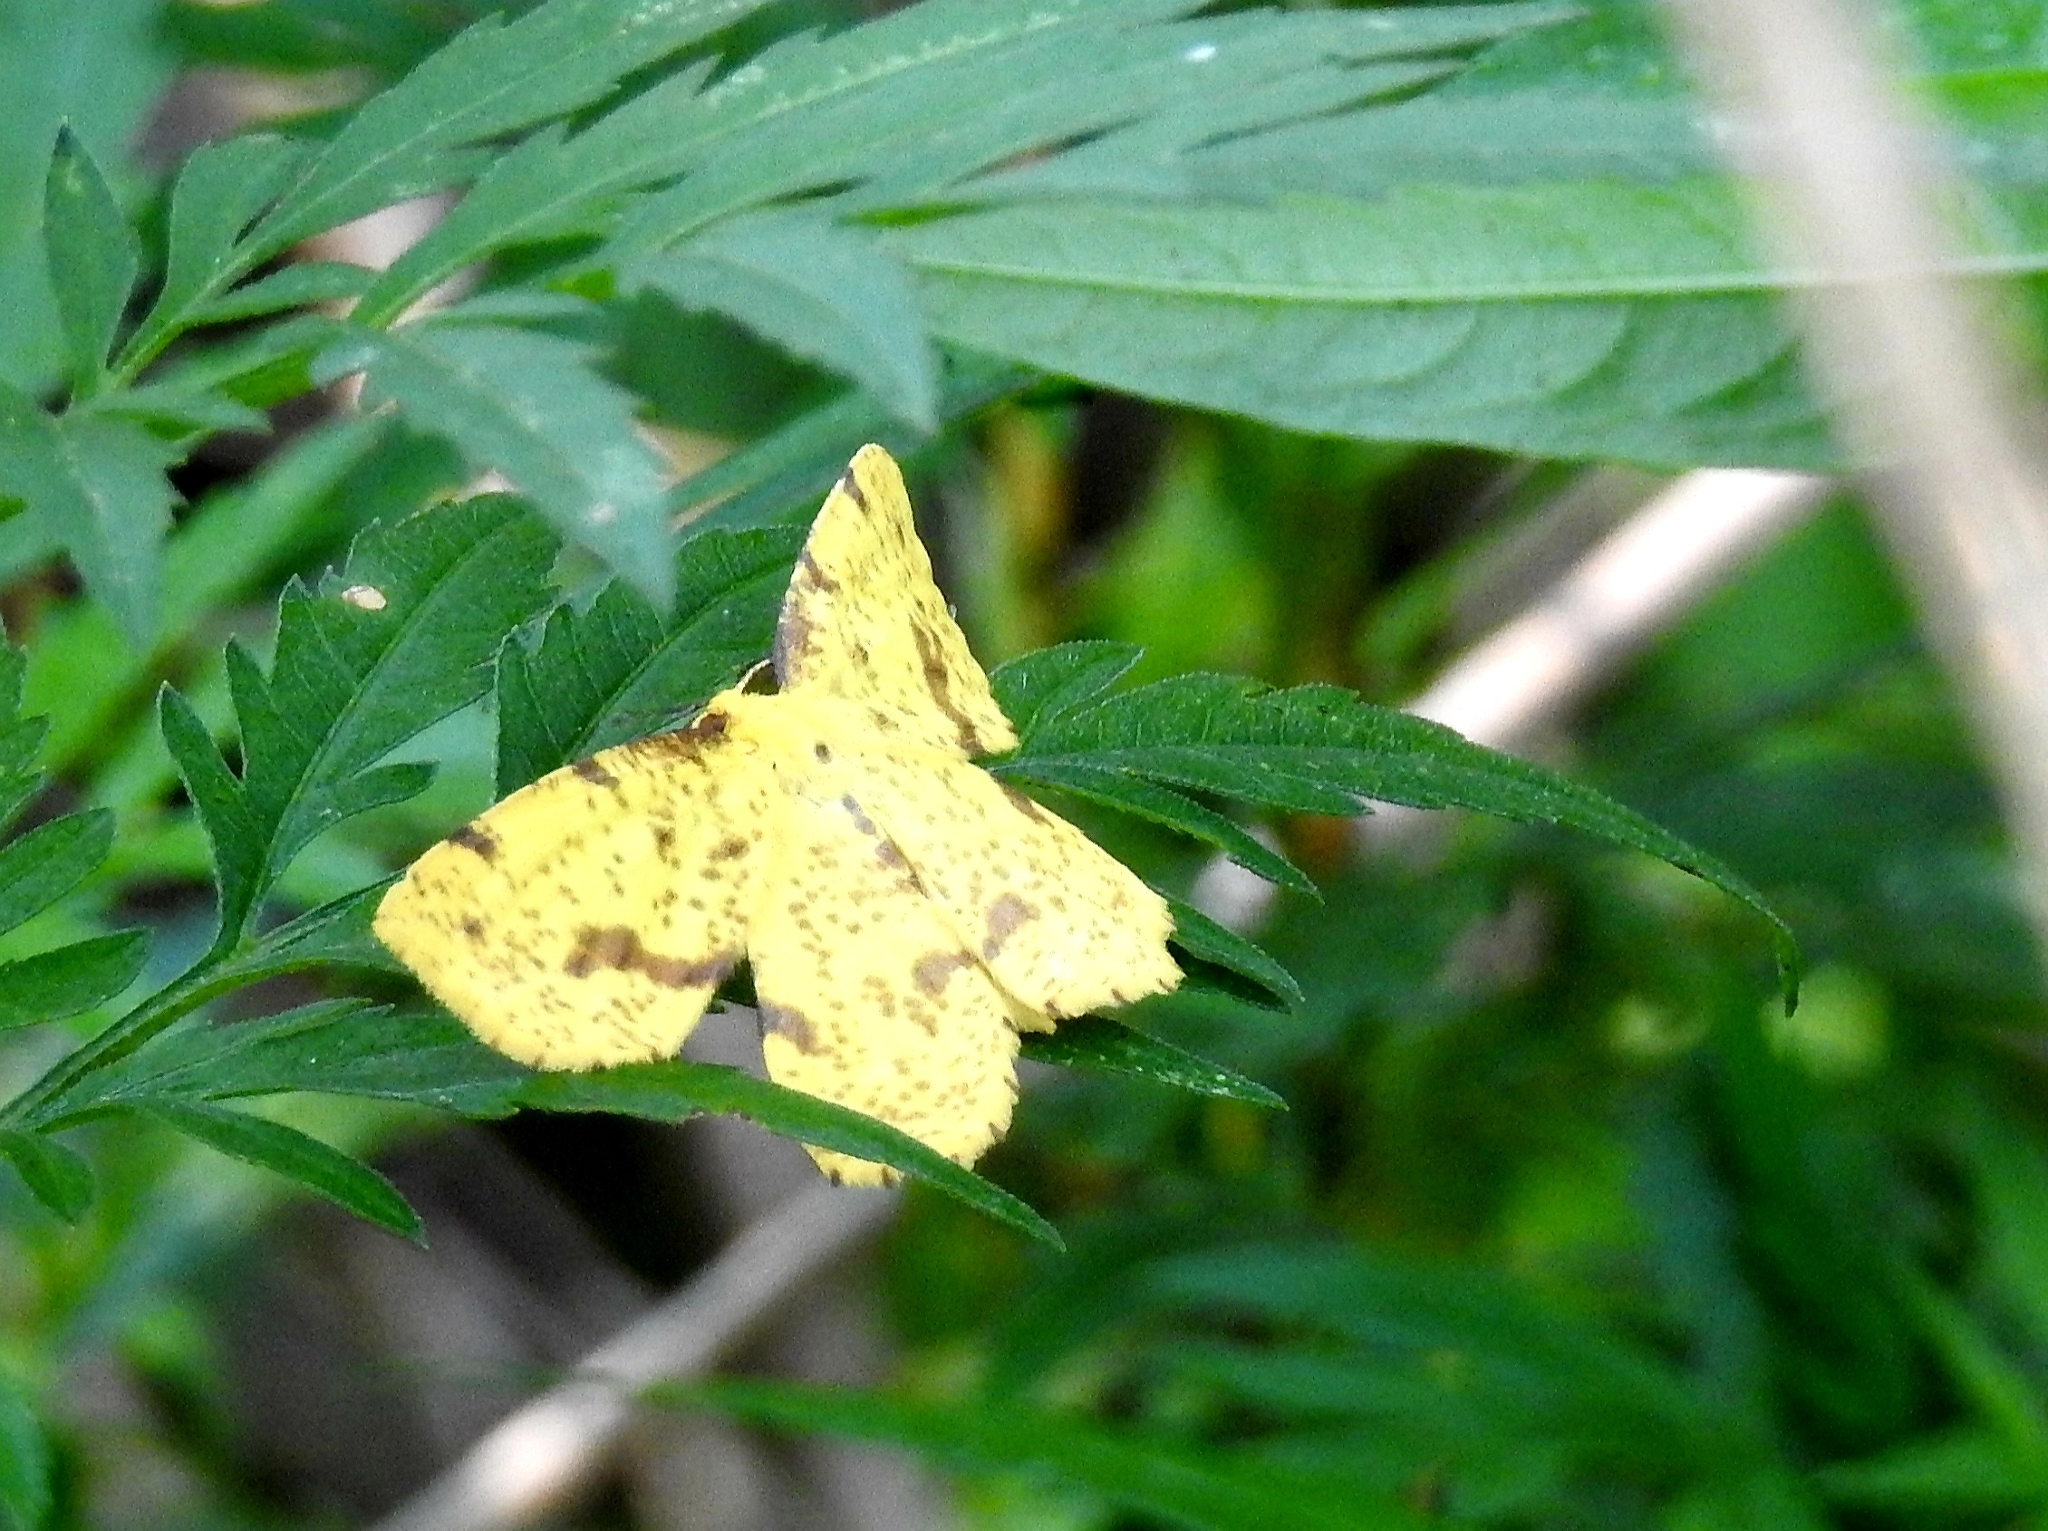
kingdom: Animalia
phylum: Arthropoda
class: Insecta
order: Lepidoptera
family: Geometridae
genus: Xanthotype
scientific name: Xanthotype
